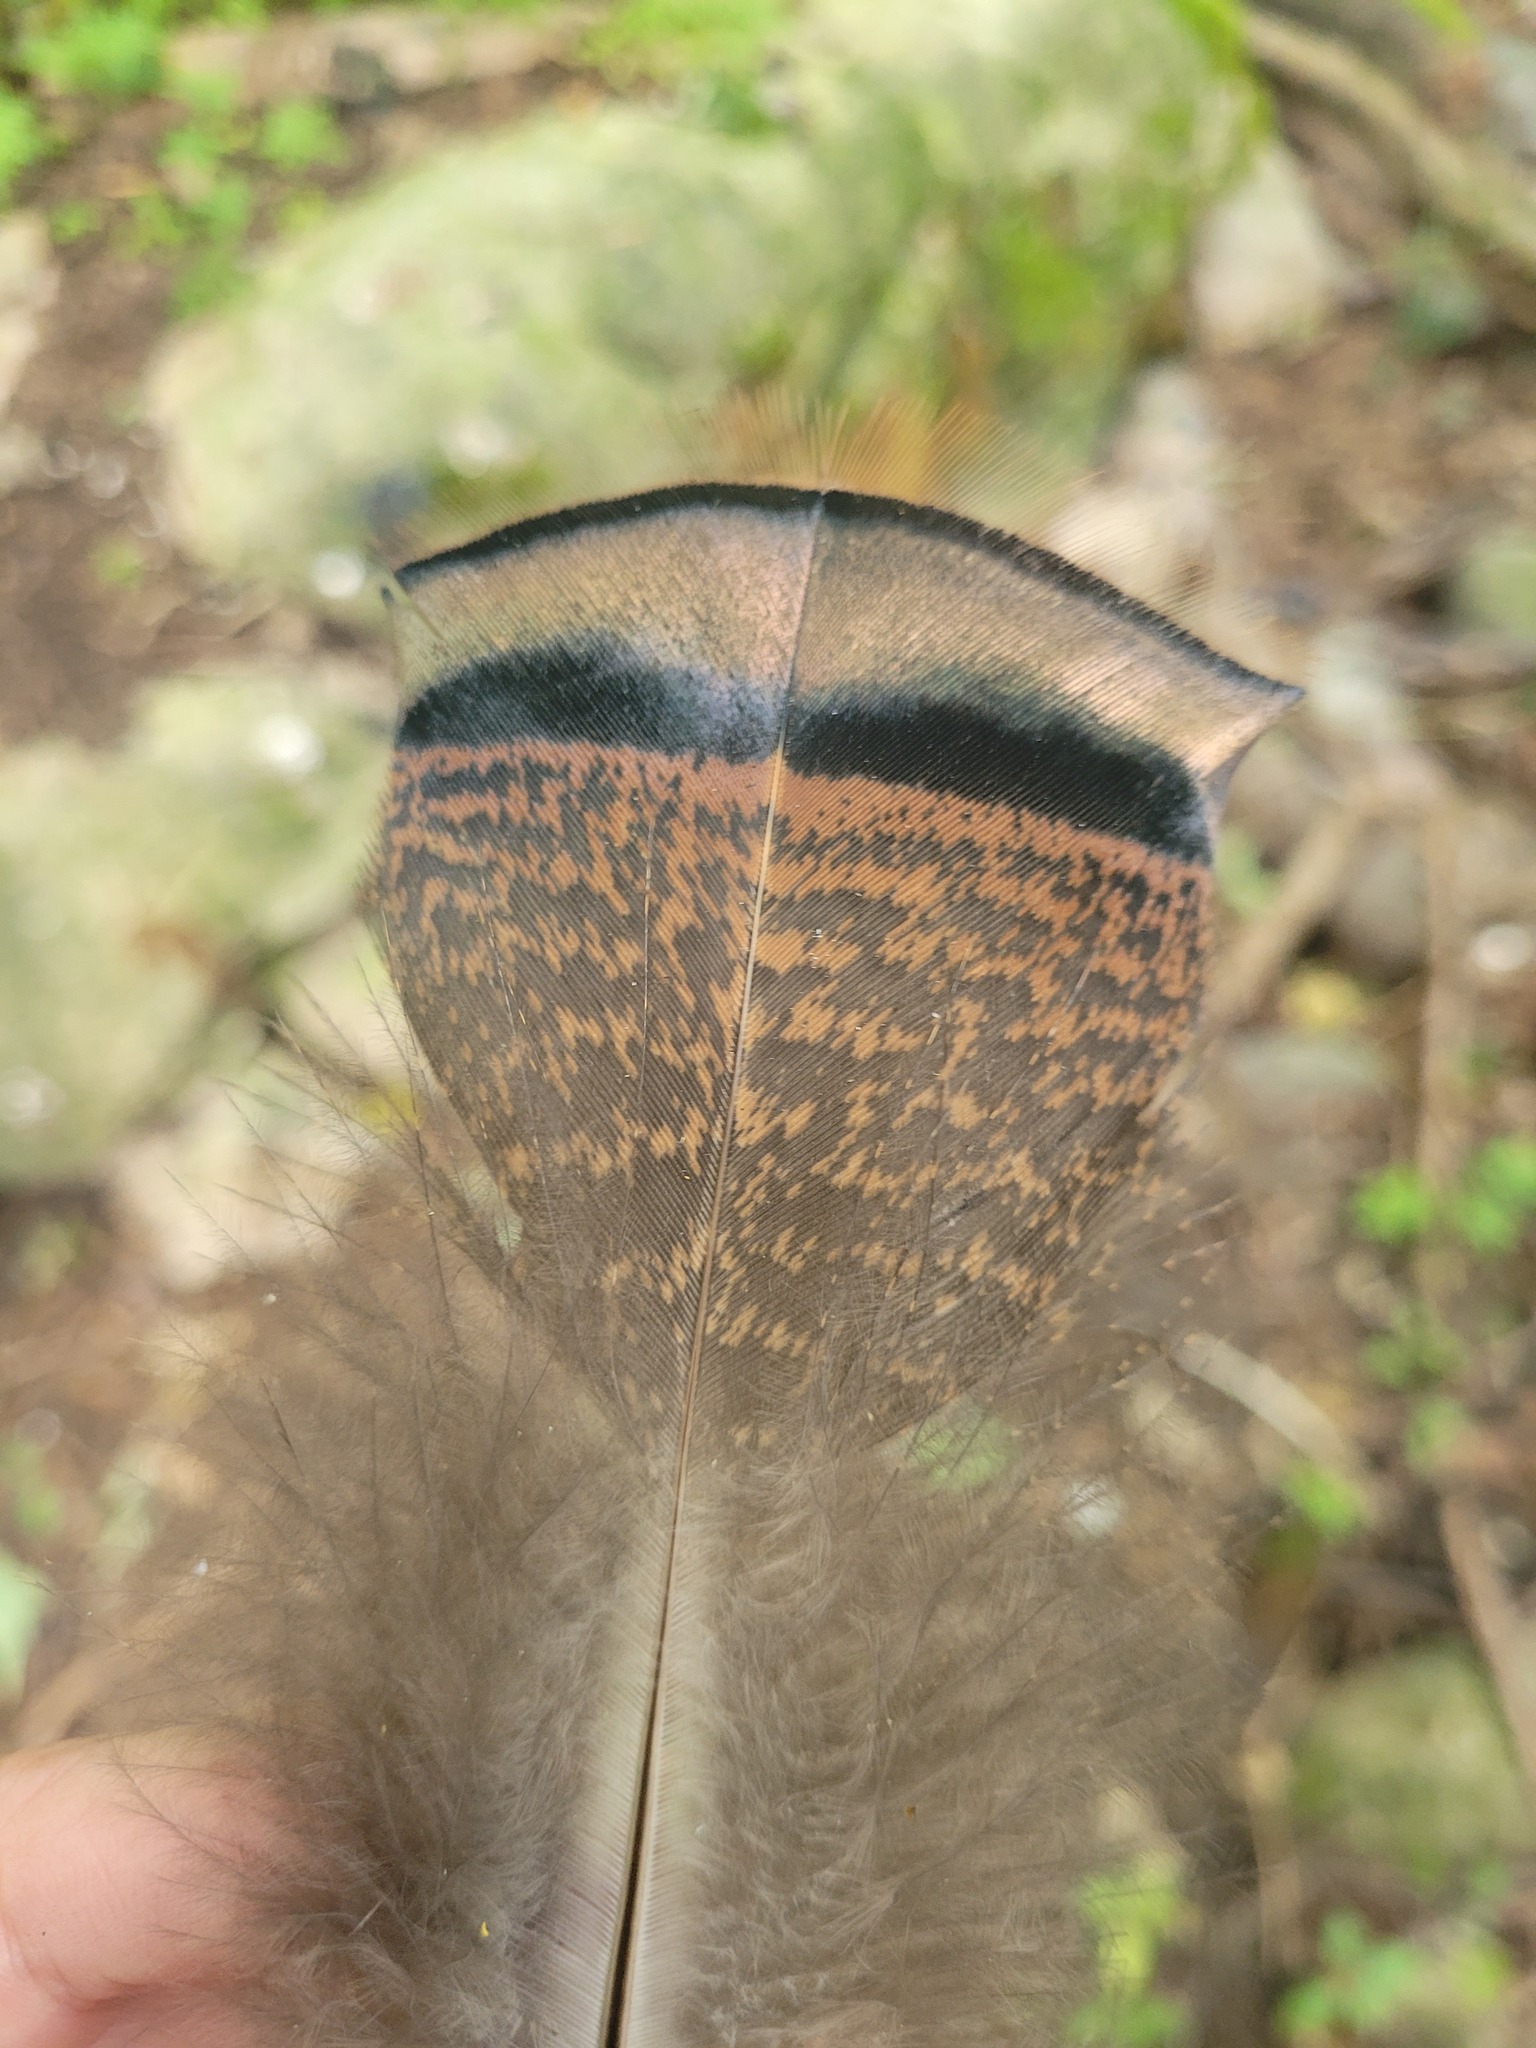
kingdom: Animalia
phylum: Chordata
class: Aves
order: Galliformes
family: Phasianidae
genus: Meleagris
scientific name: Meleagris gallopavo
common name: Wild turkey
